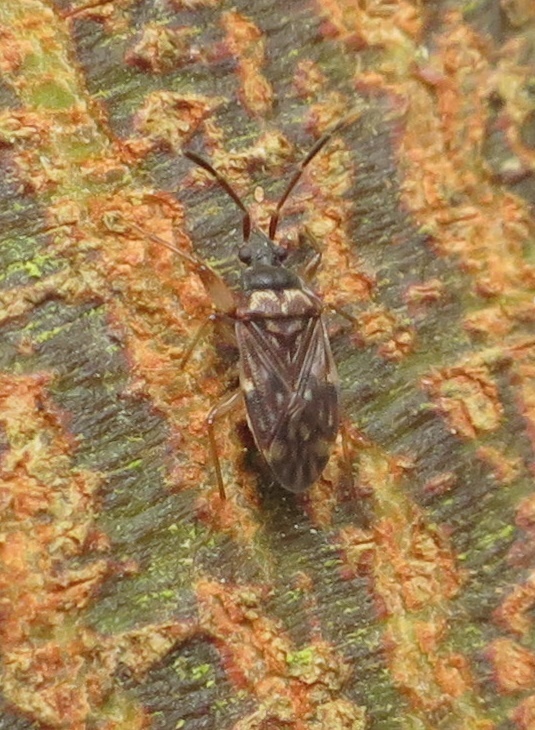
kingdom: Animalia
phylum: Arthropoda
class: Insecta
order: Hemiptera
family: Rhyparochromidae
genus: Grossander
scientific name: Grossander major
